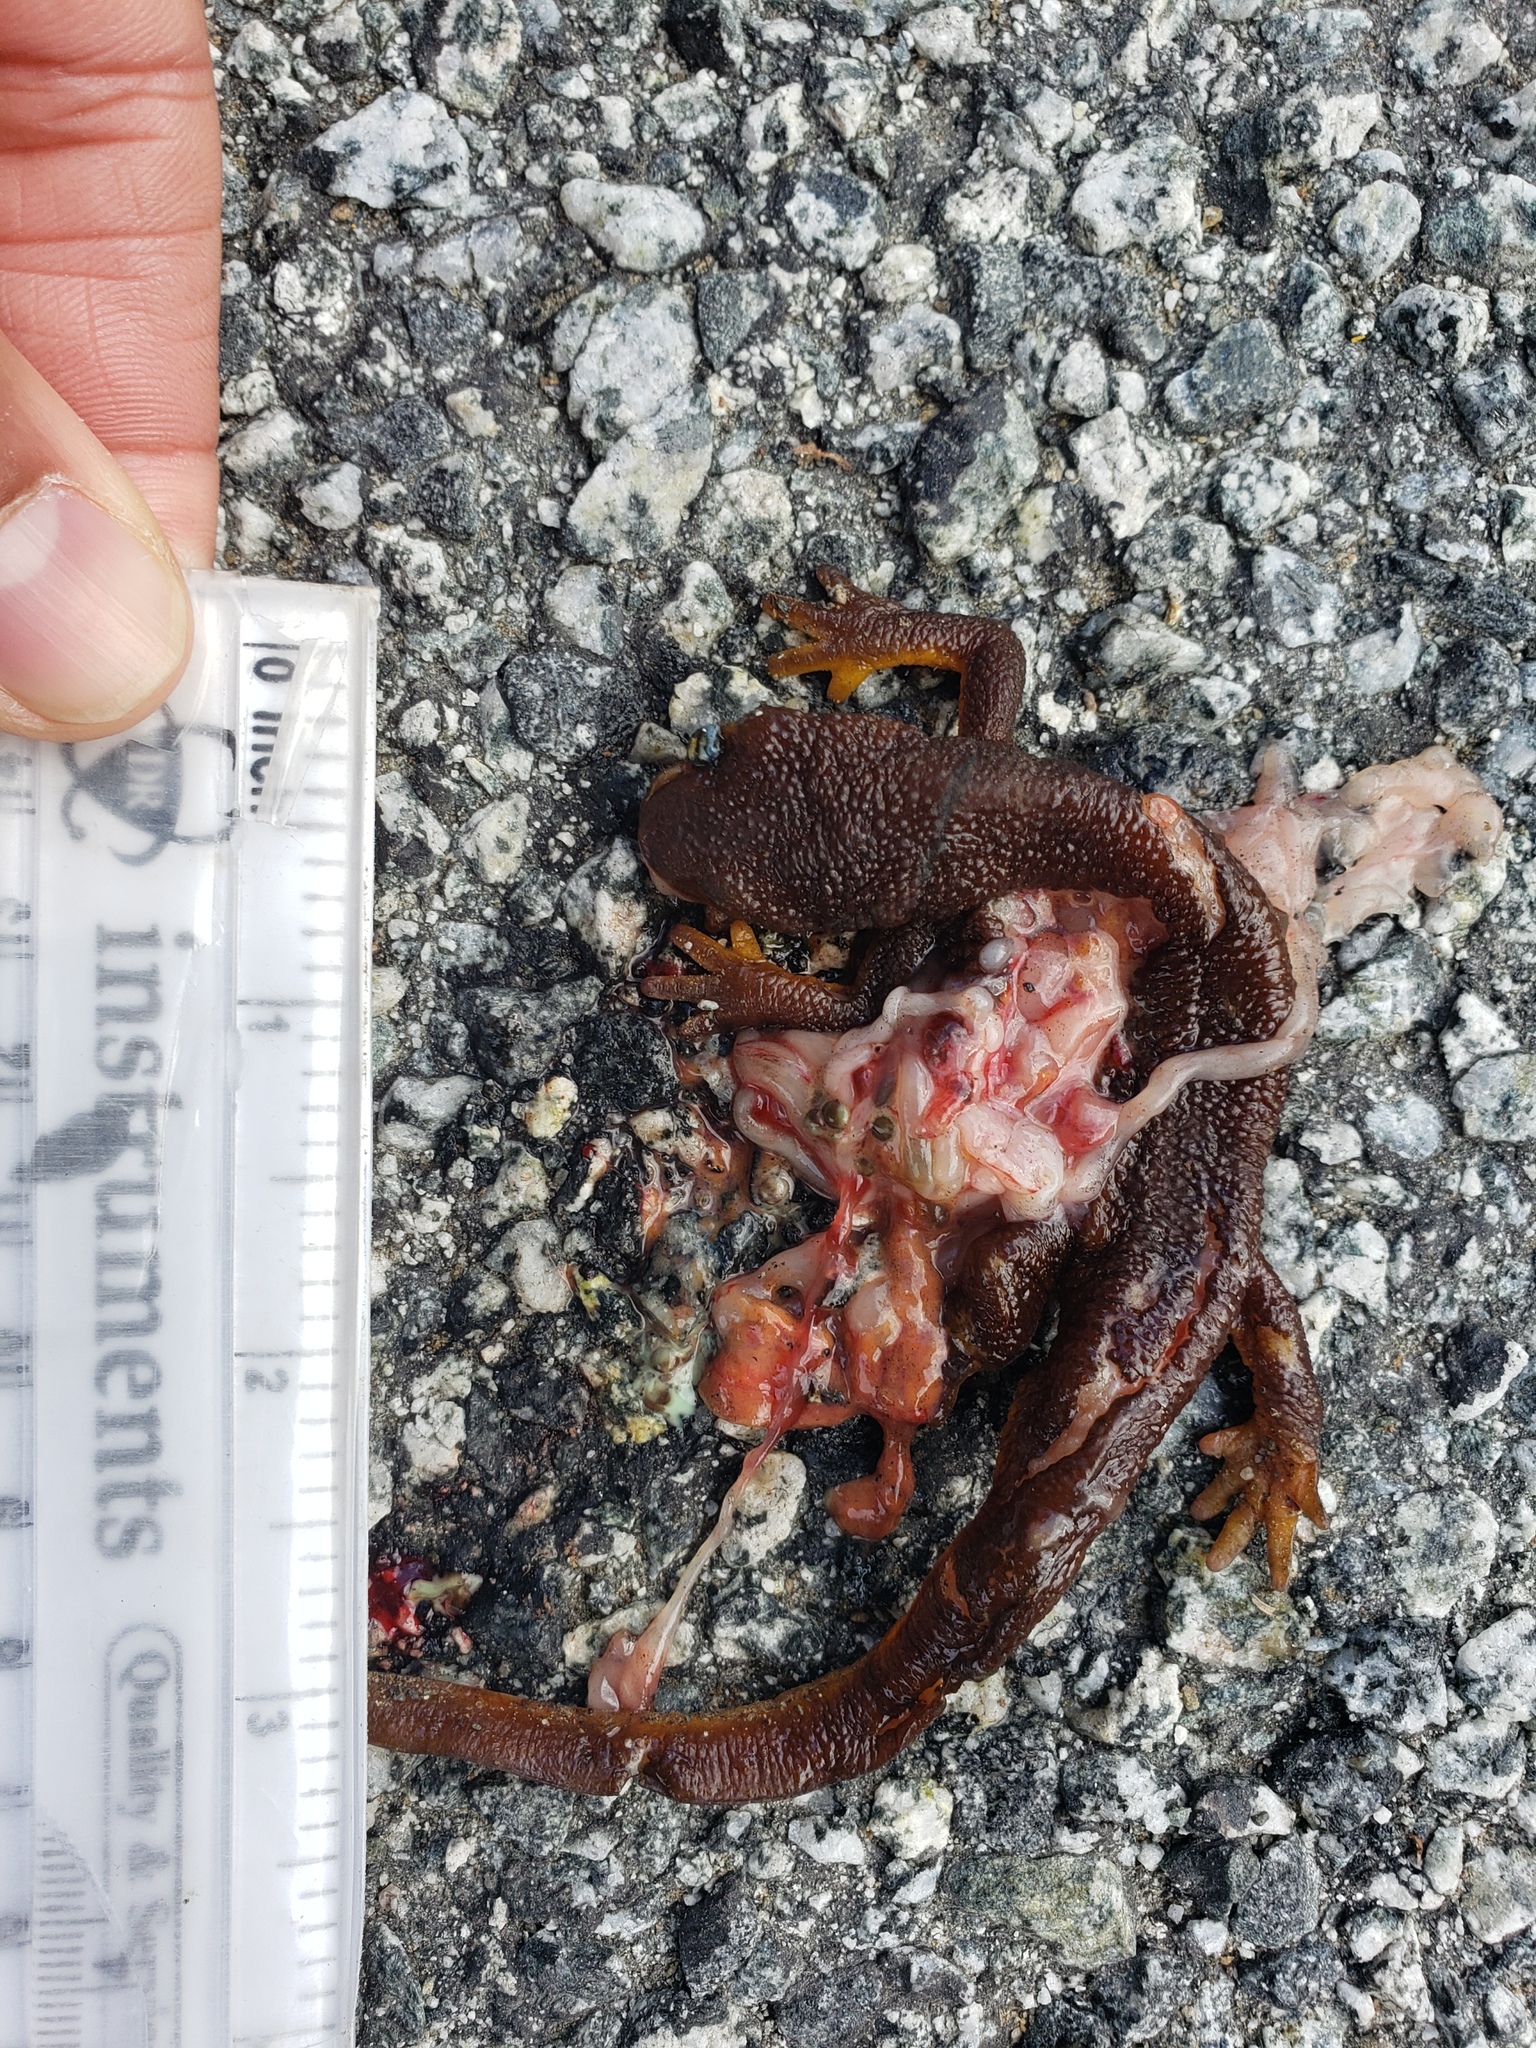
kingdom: Animalia
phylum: Chordata
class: Amphibia
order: Caudata
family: Salamandridae
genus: Taricha
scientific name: Taricha
